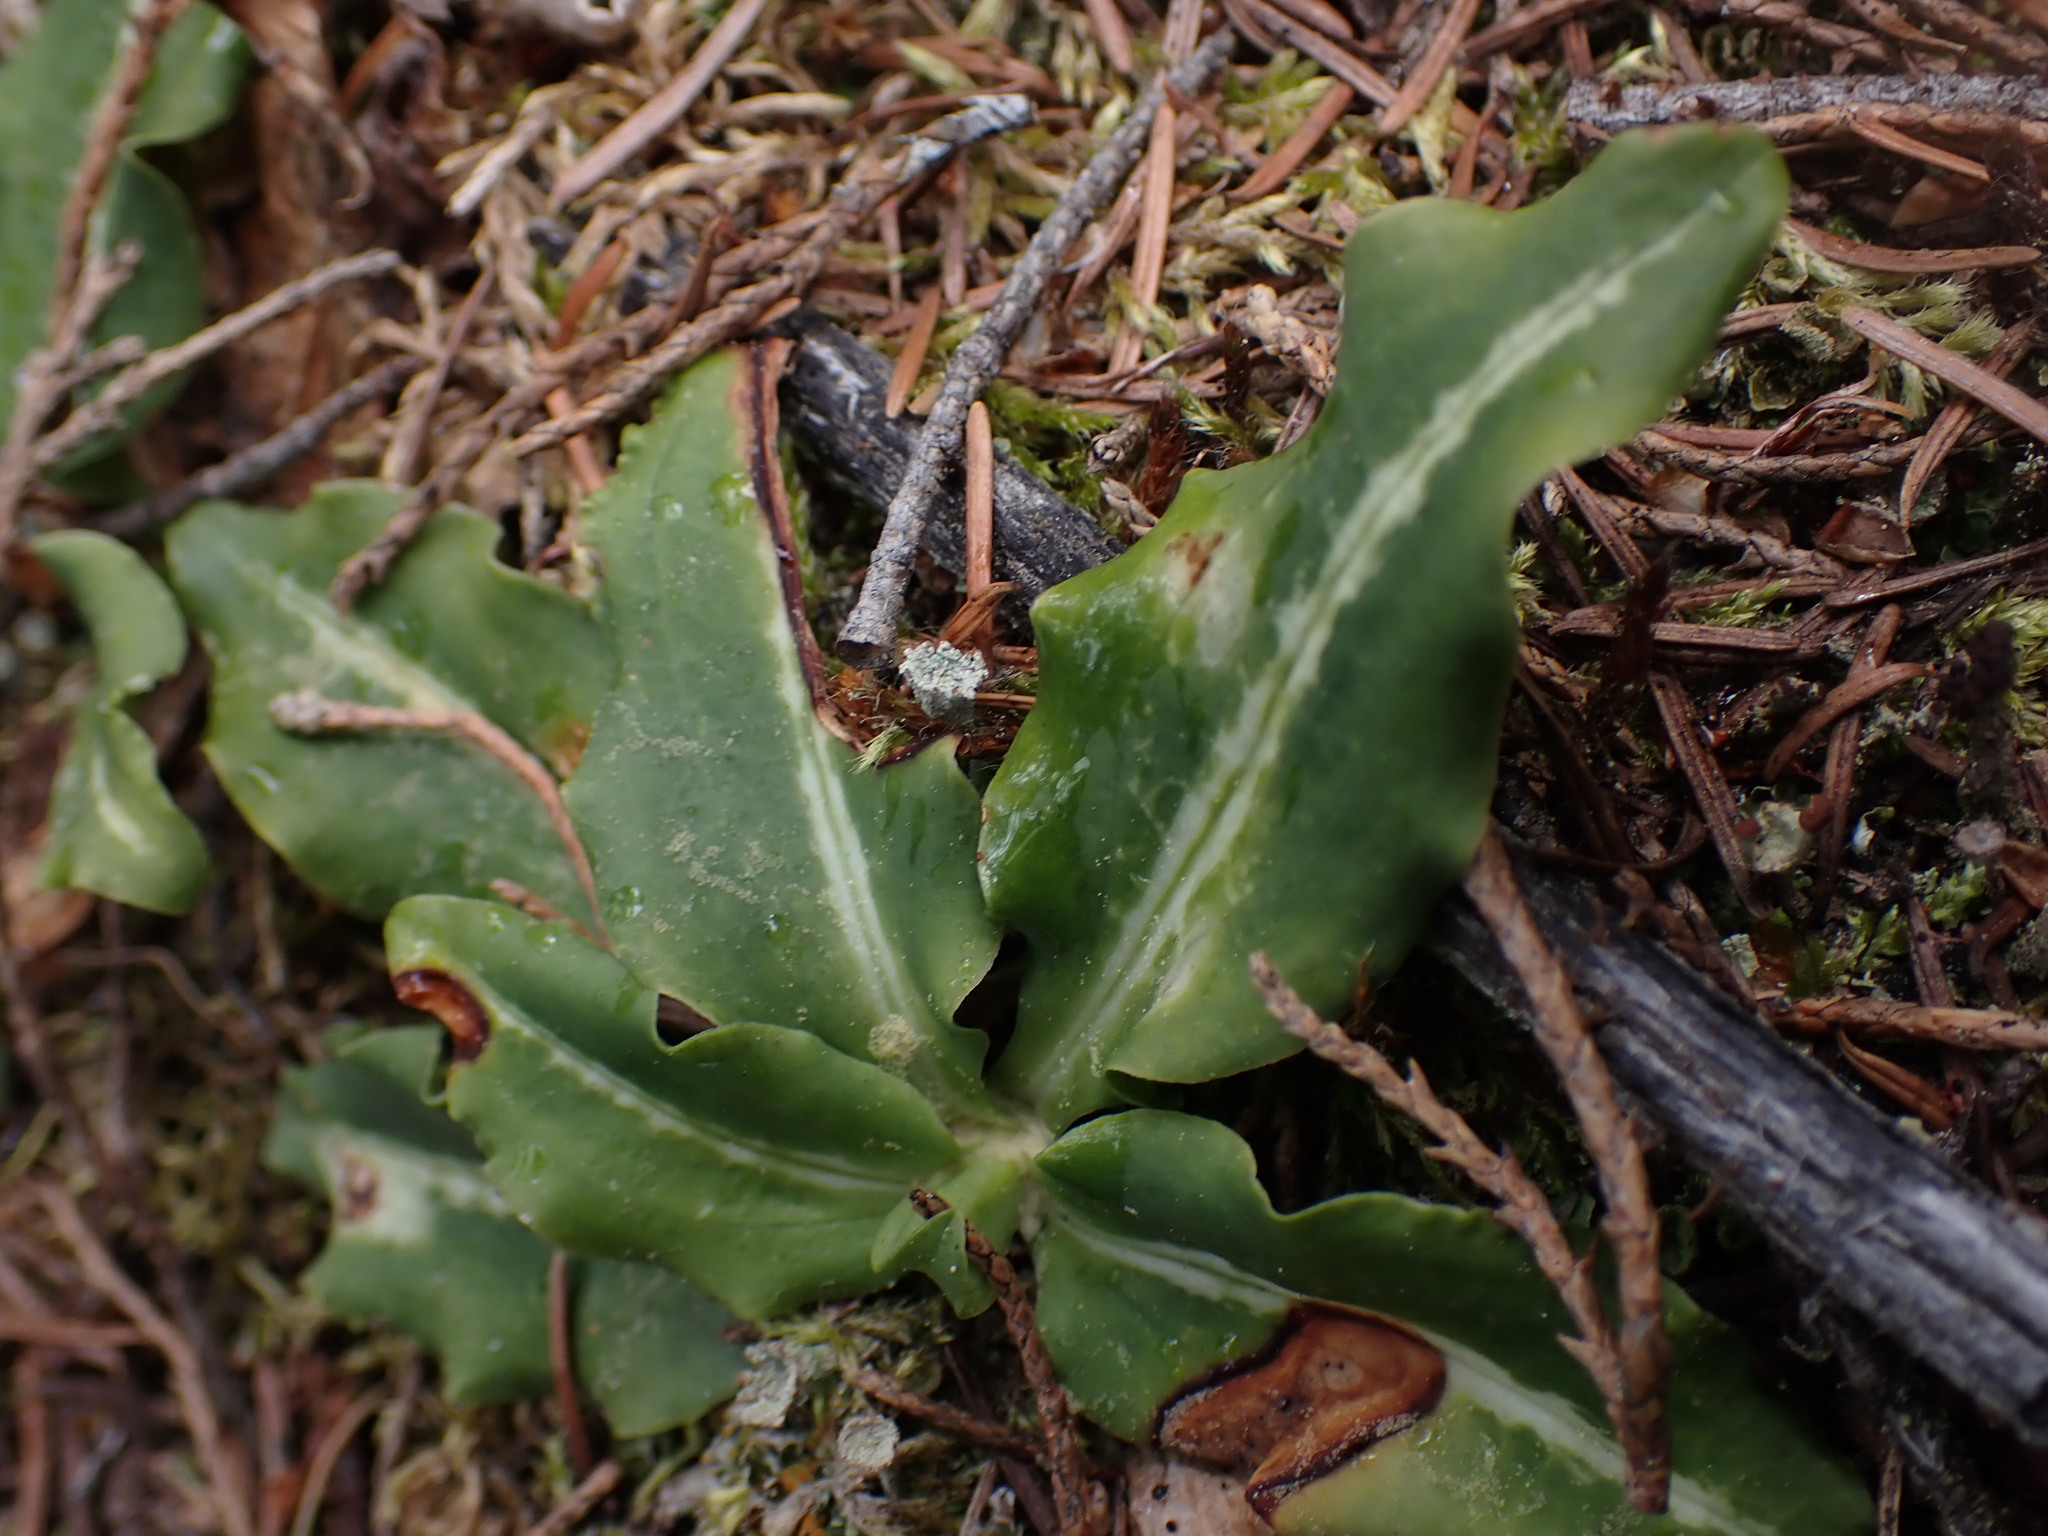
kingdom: Plantae
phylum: Tracheophyta
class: Liliopsida
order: Asparagales
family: Orchidaceae
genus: Goodyera
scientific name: Goodyera oblongifolia
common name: Giant rattlesnake-plantain
